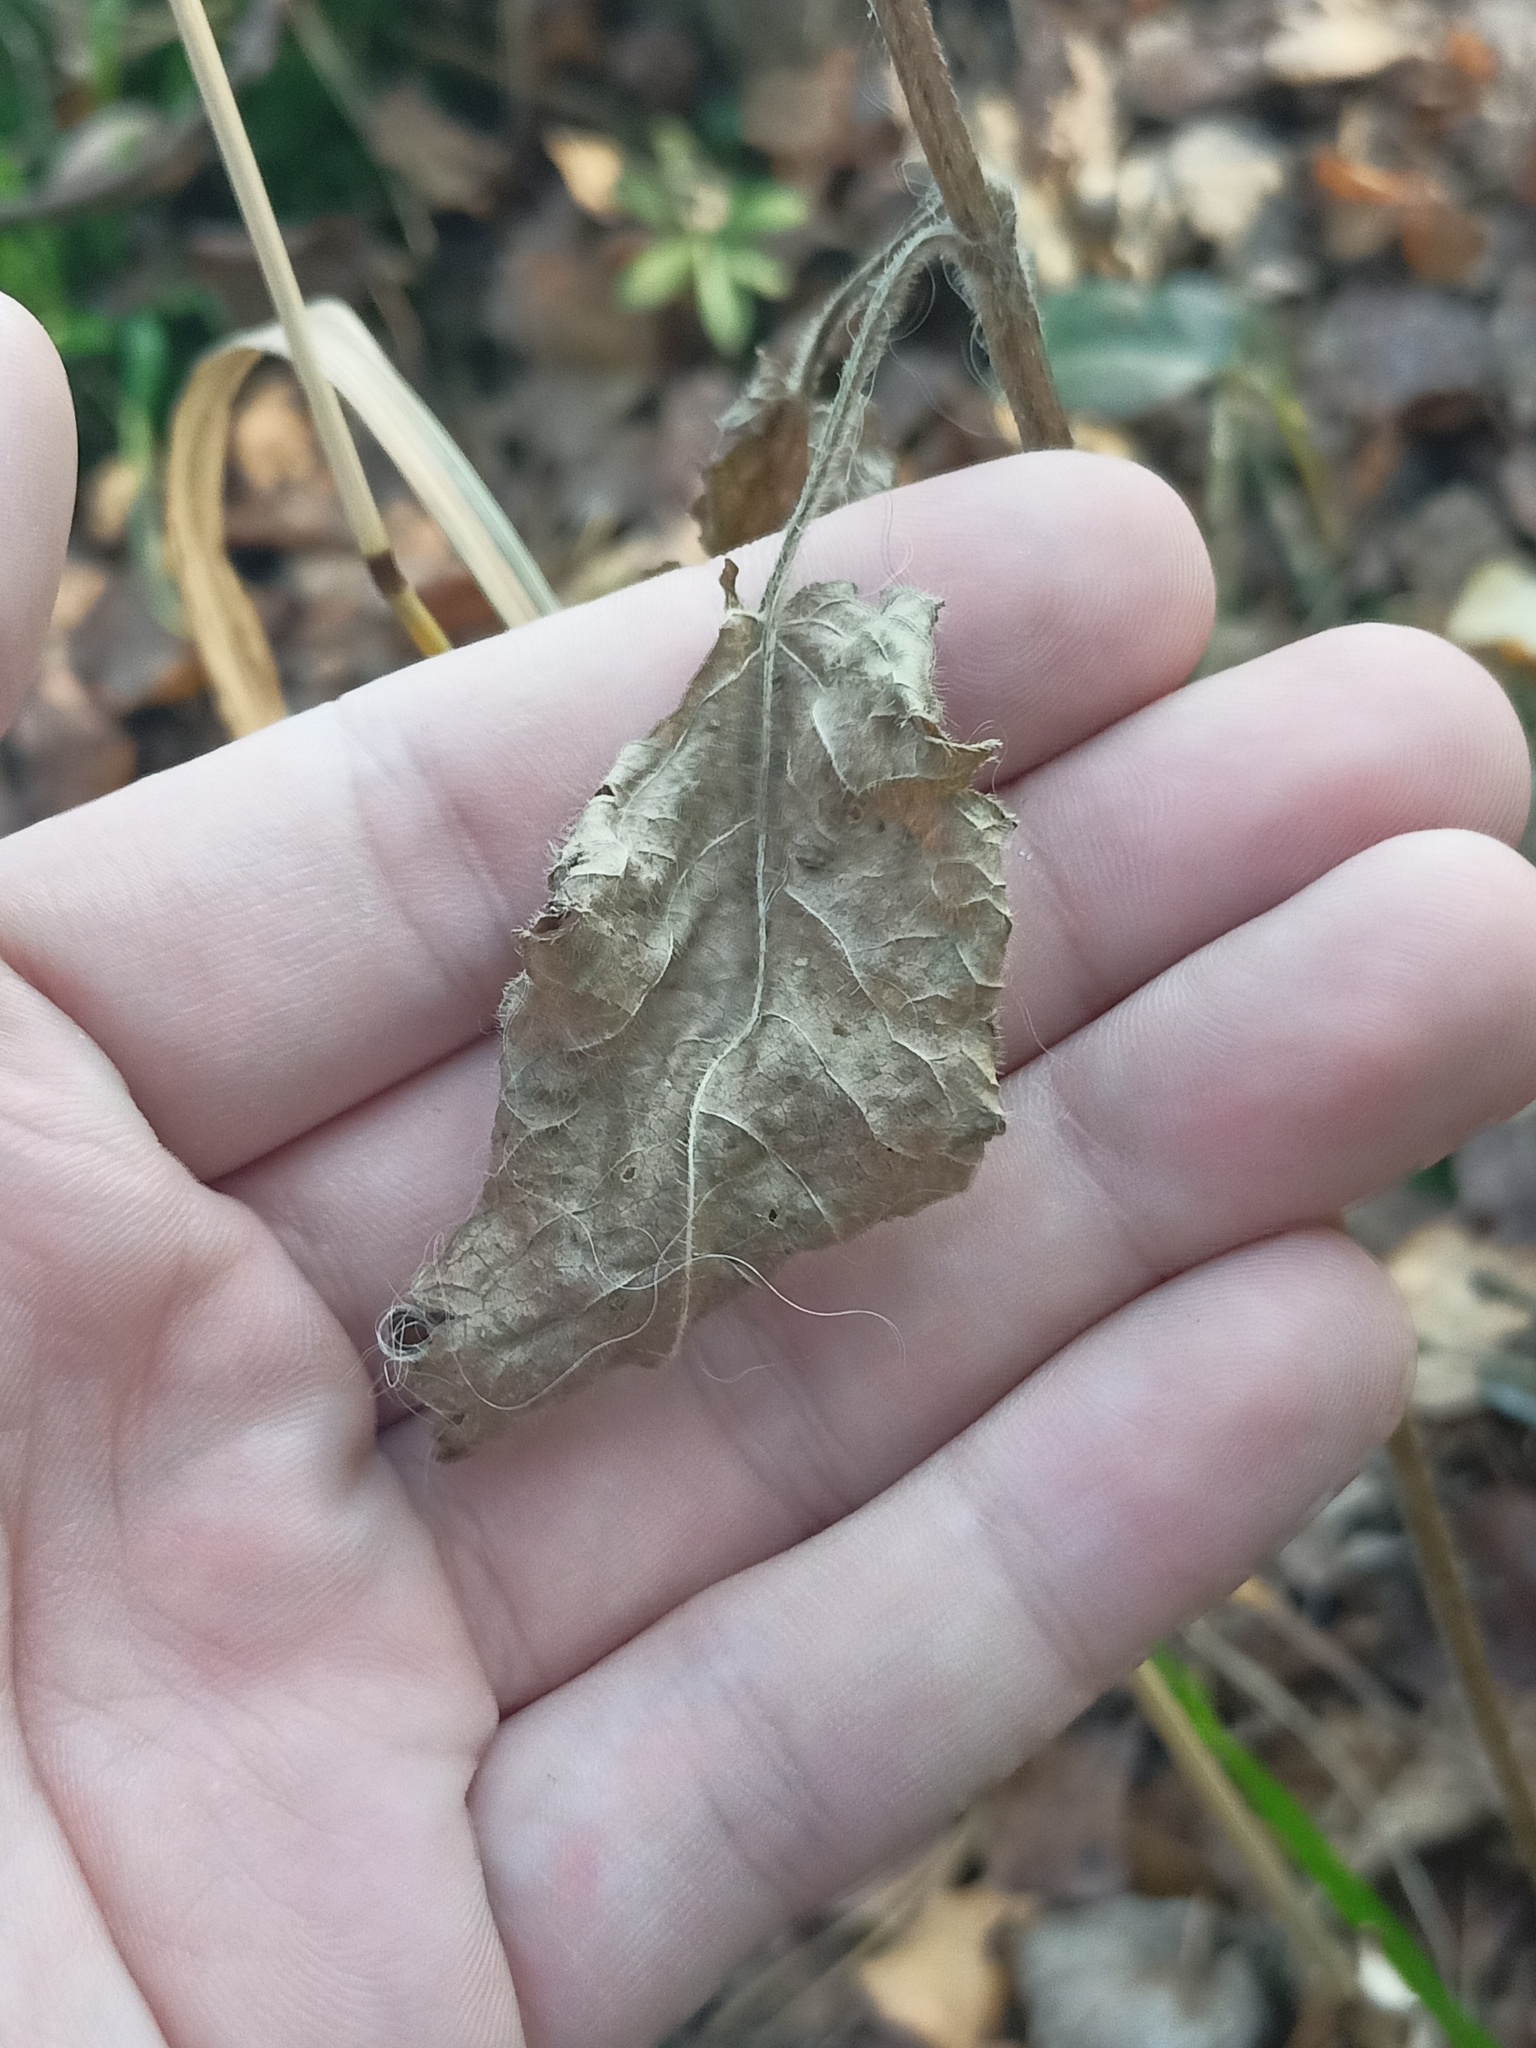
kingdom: Plantae
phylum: Tracheophyta
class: Magnoliopsida
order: Lamiales
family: Lamiaceae
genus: Betonica
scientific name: Betonica officinalis
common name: Bishop's-wort
